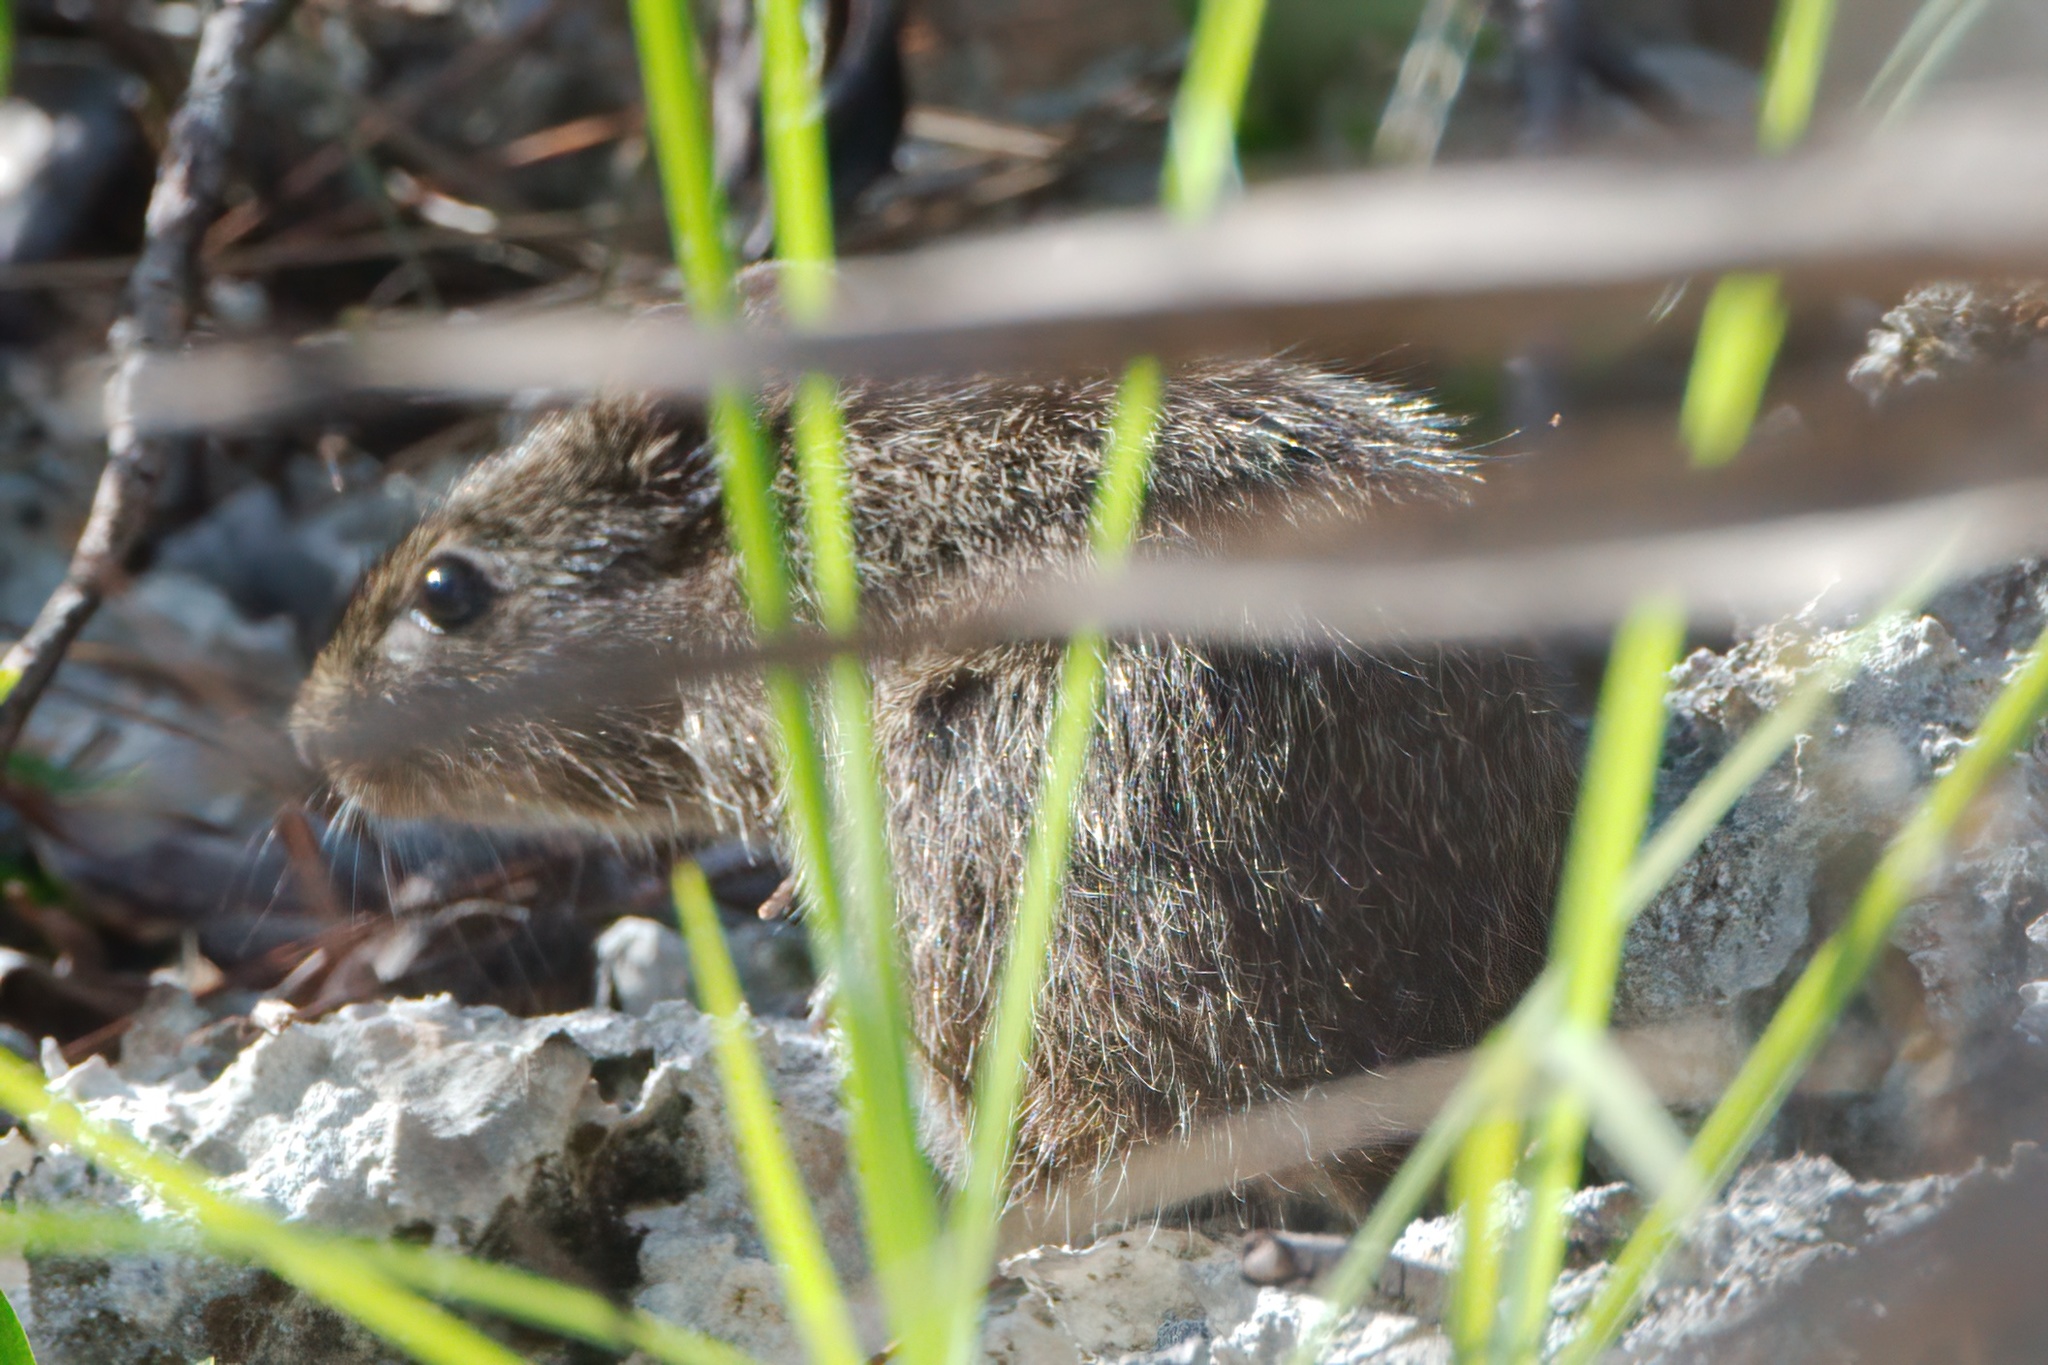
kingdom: Animalia
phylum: Chordata
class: Mammalia
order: Rodentia
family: Cricetidae
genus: Sigmodon
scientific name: Sigmodon hispidus
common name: Hispid cotton rat
